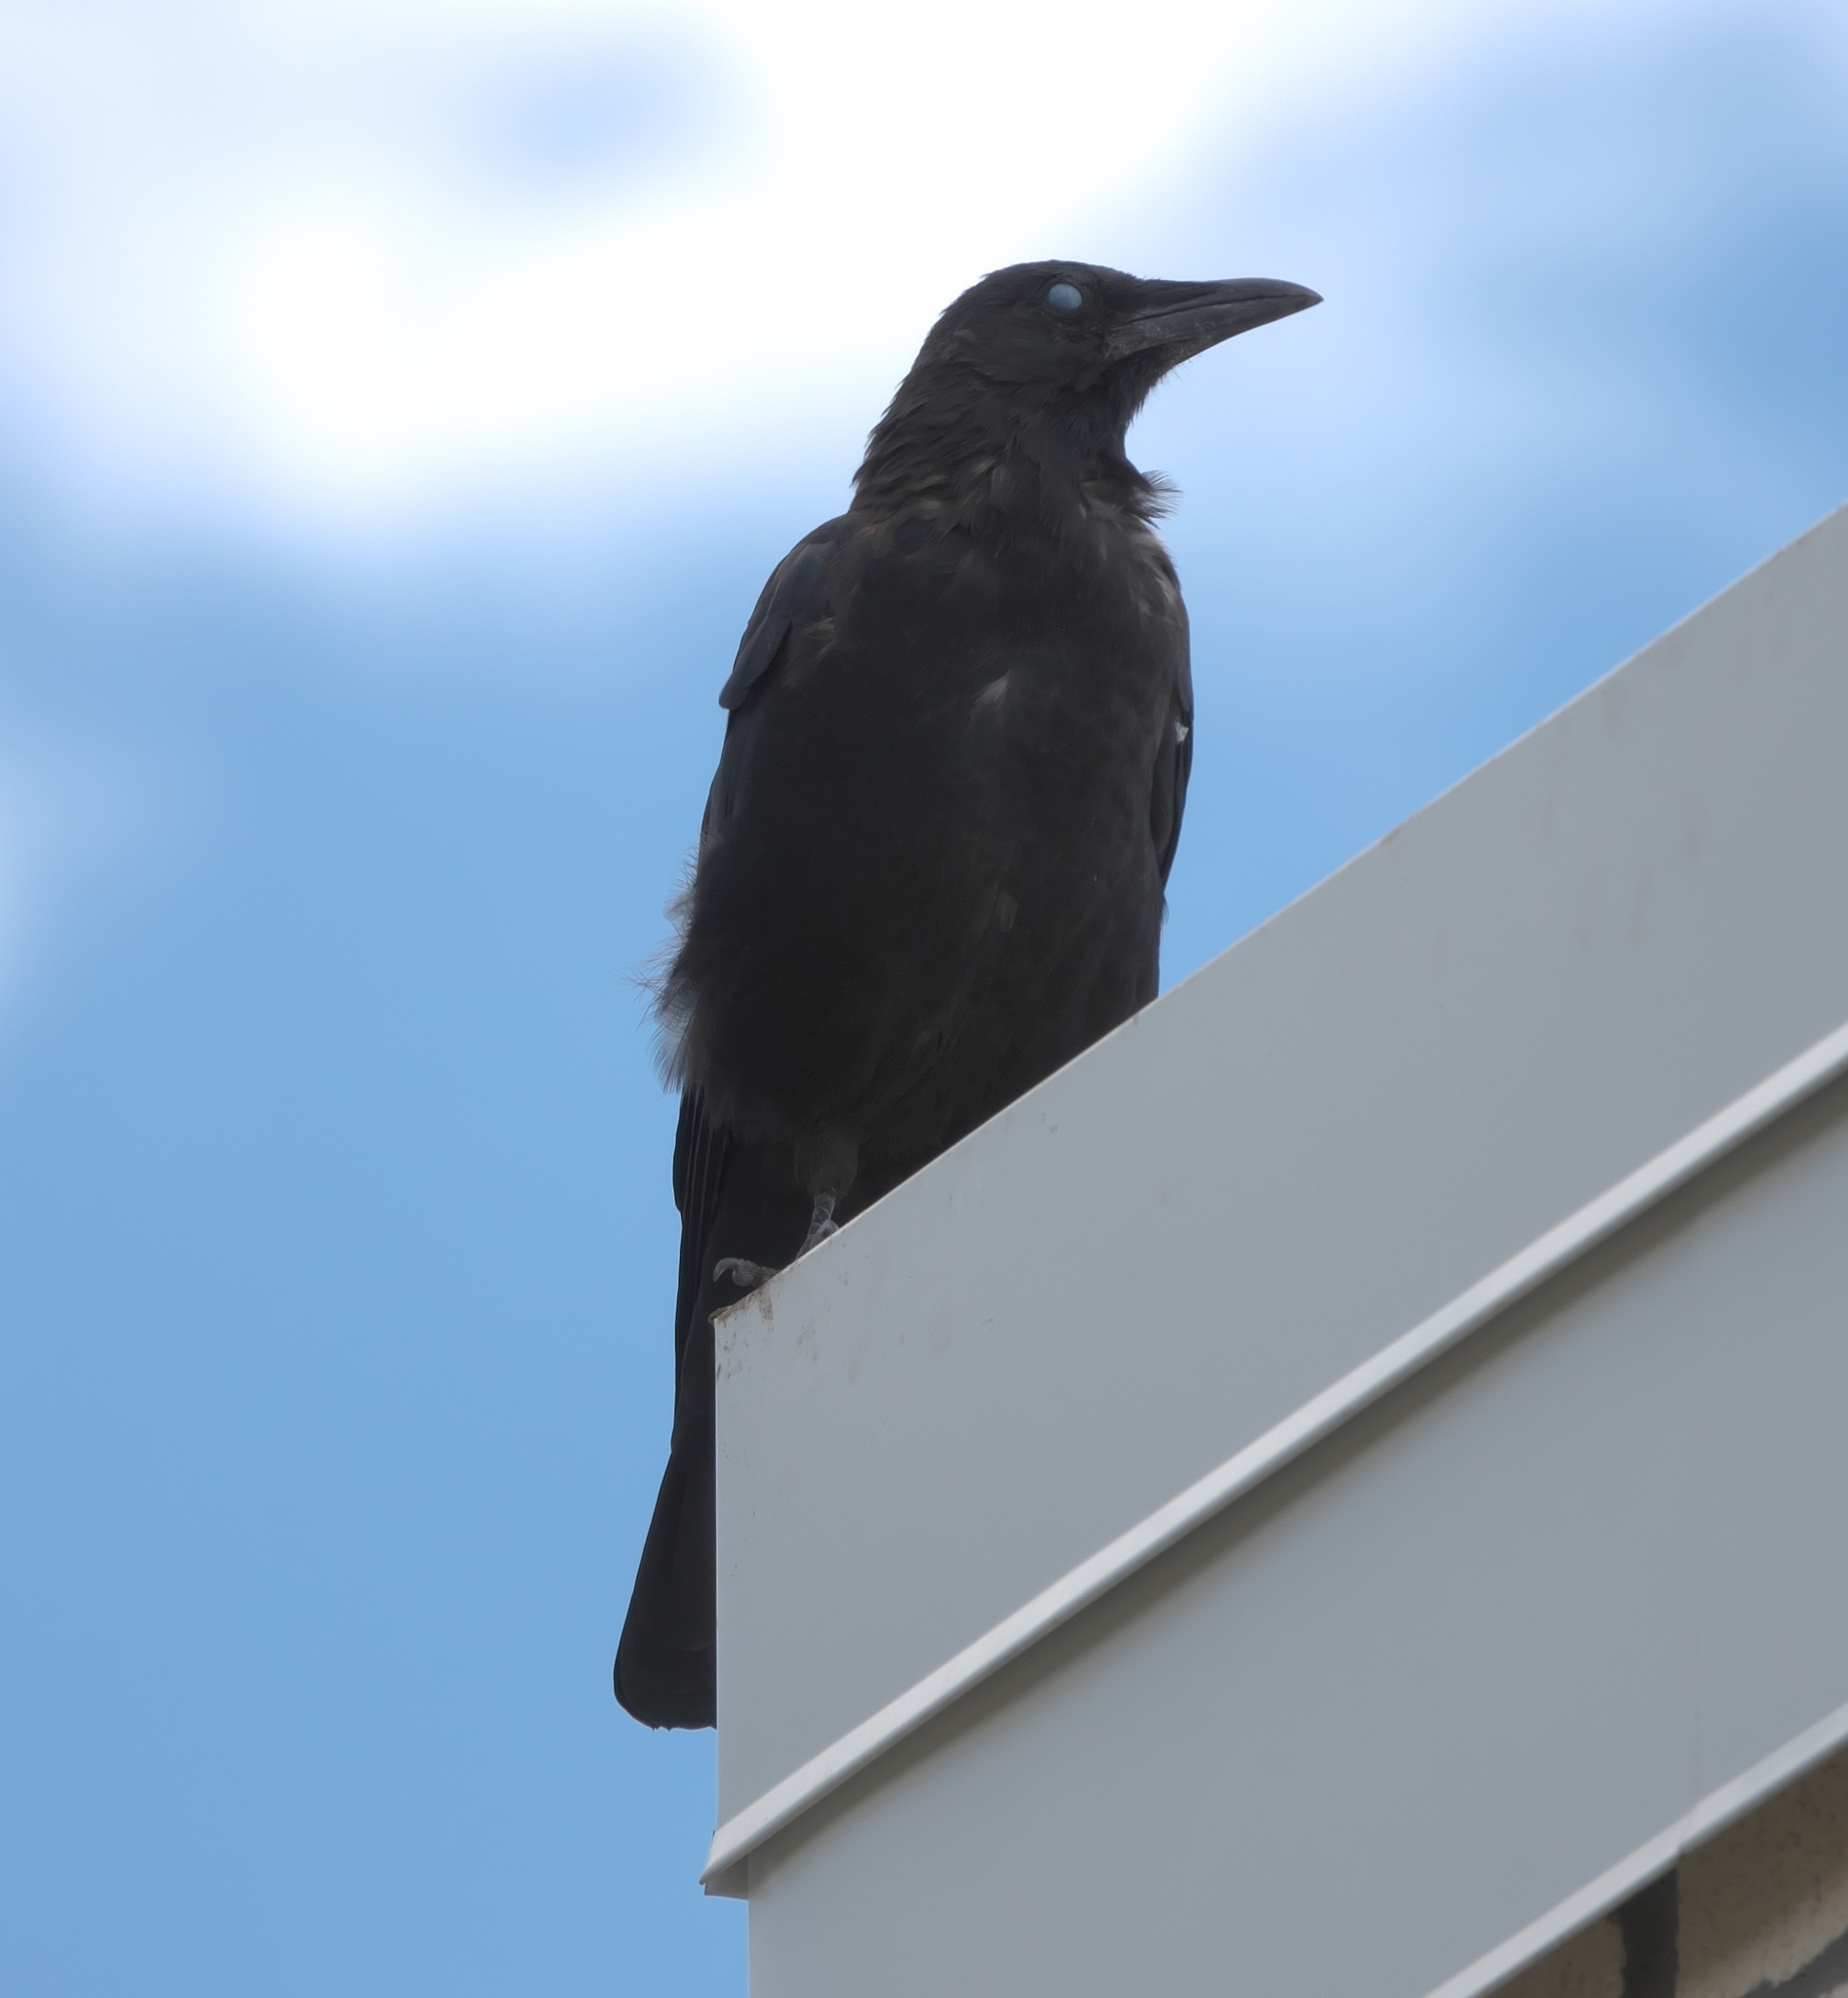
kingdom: Animalia
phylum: Chordata
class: Aves
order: Passeriformes
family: Corvidae
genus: Corvus
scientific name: Corvus brachyrhynchos
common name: American crow
